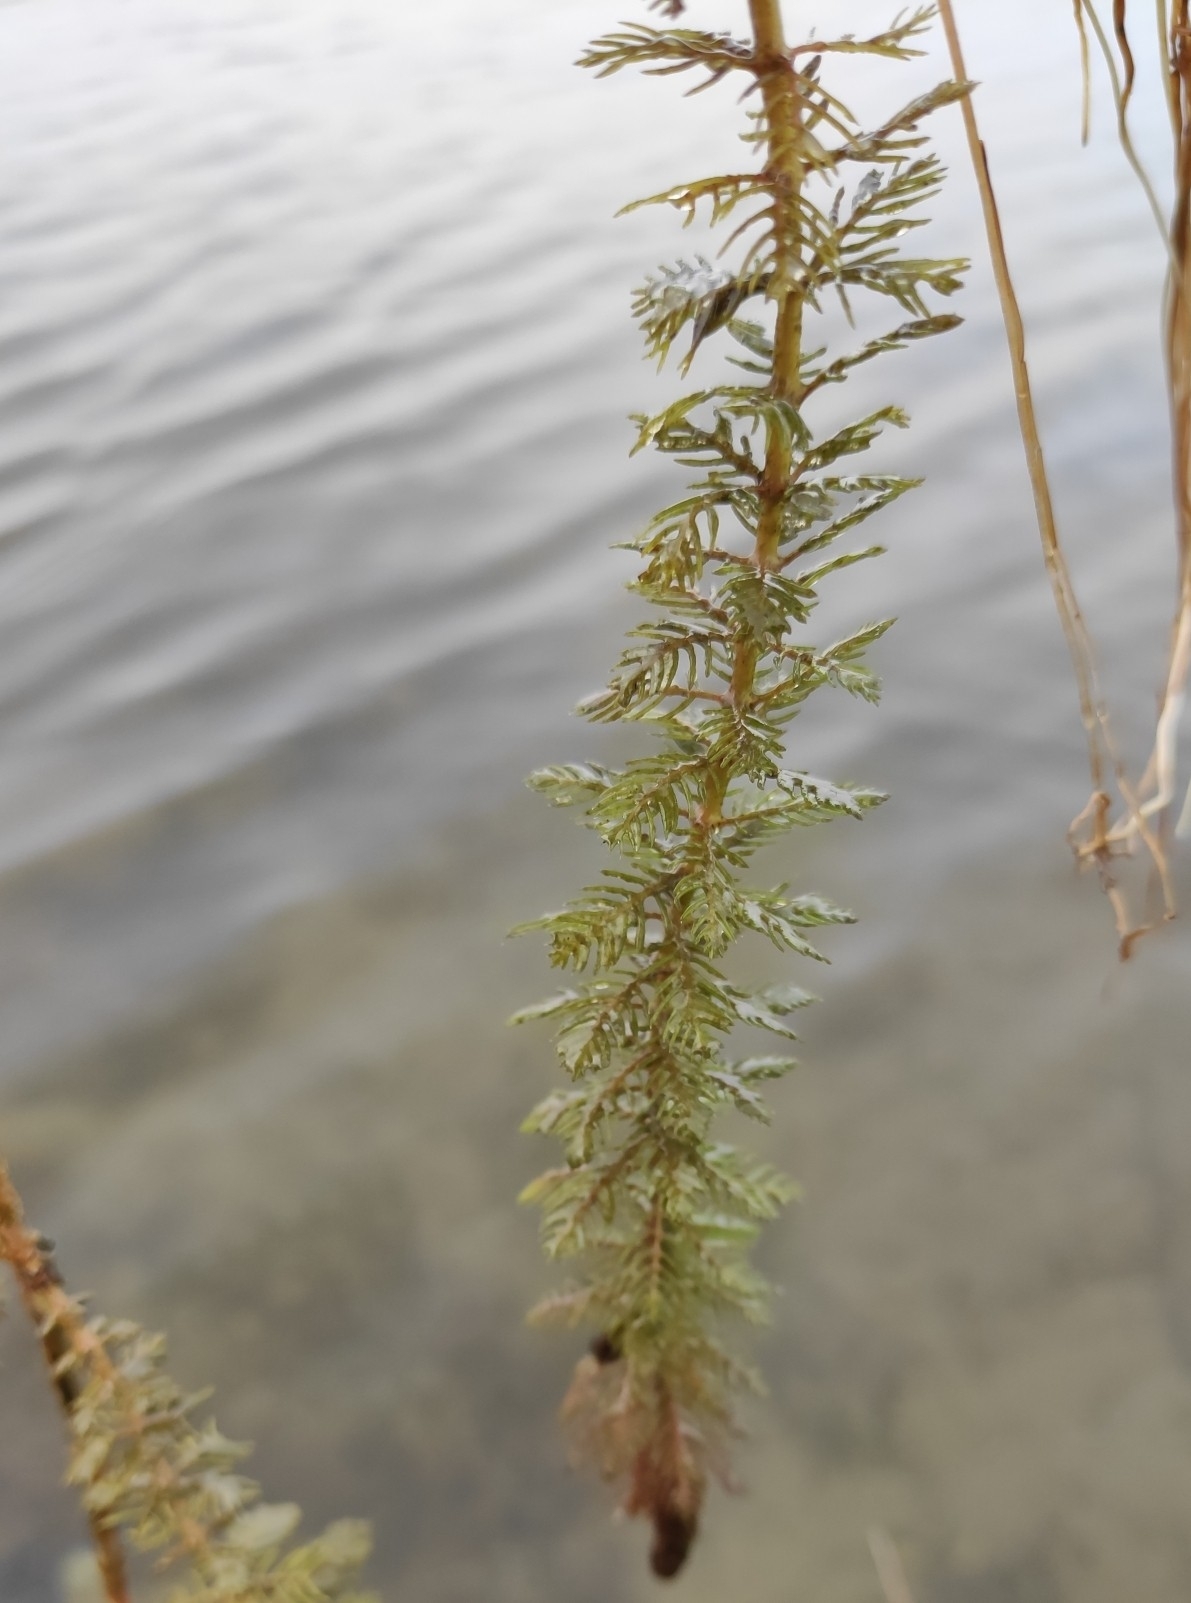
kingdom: Plantae
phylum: Tracheophyta
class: Magnoliopsida
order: Saxifragales
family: Haloragaceae
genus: Myriophyllum
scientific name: Myriophyllum verticillatum
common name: Whorled water-milfoil
